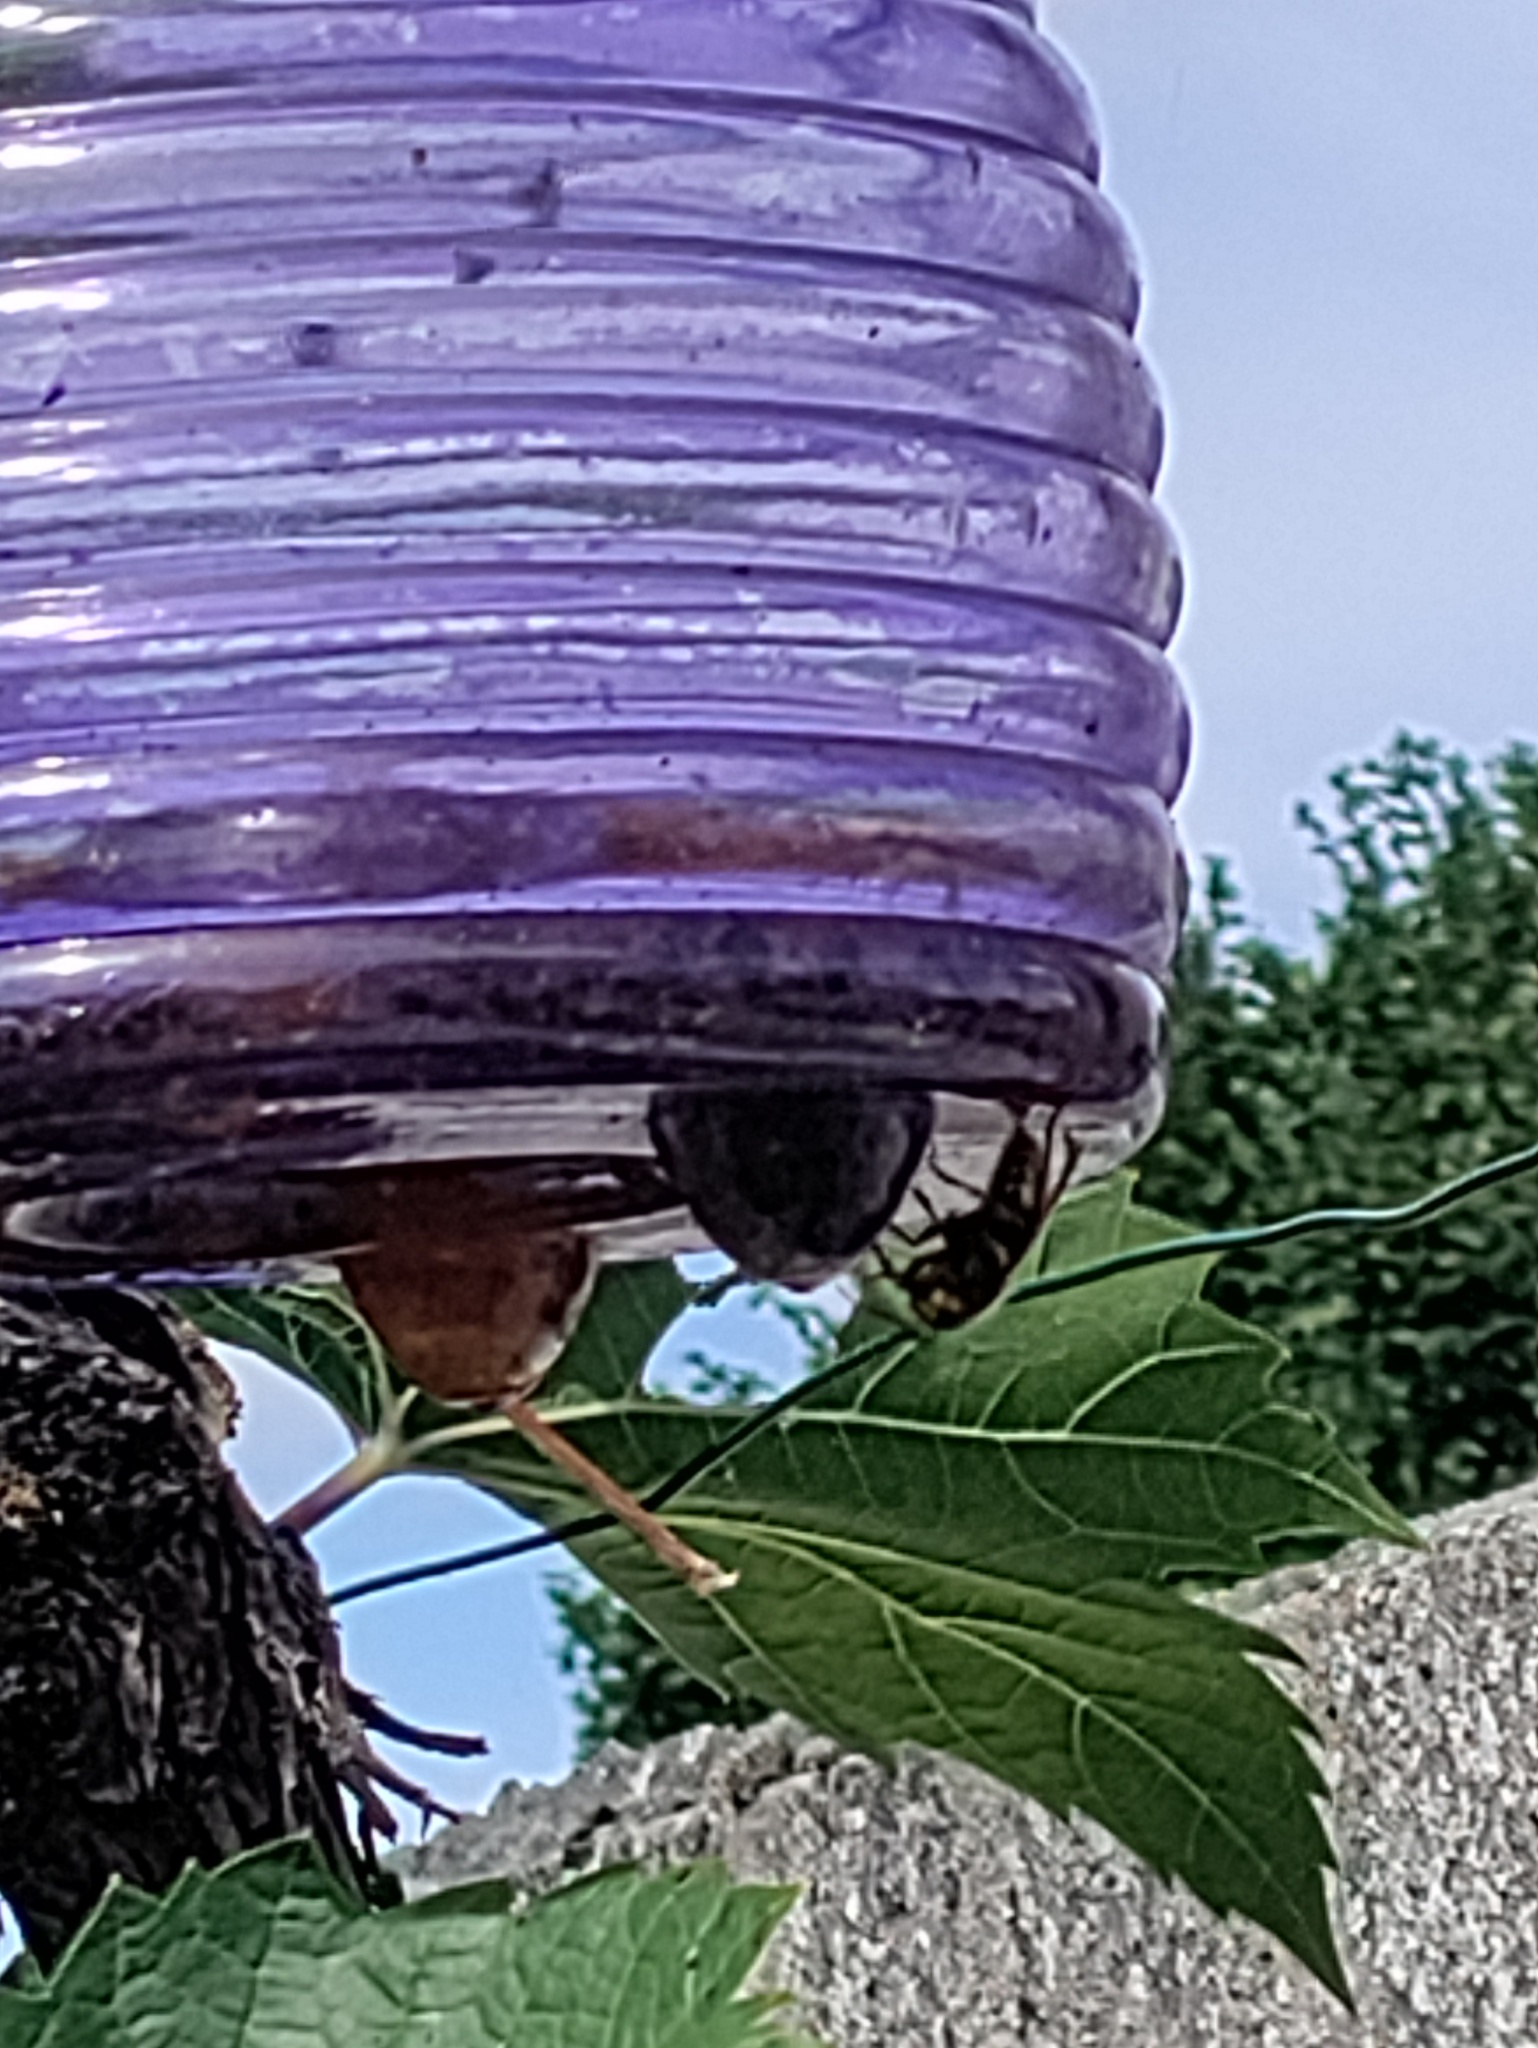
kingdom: Animalia
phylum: Arthropoda
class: Insecta
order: Hymenoptera
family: Vespidae
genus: Vespa
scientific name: Vespa crabro
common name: Hornet
